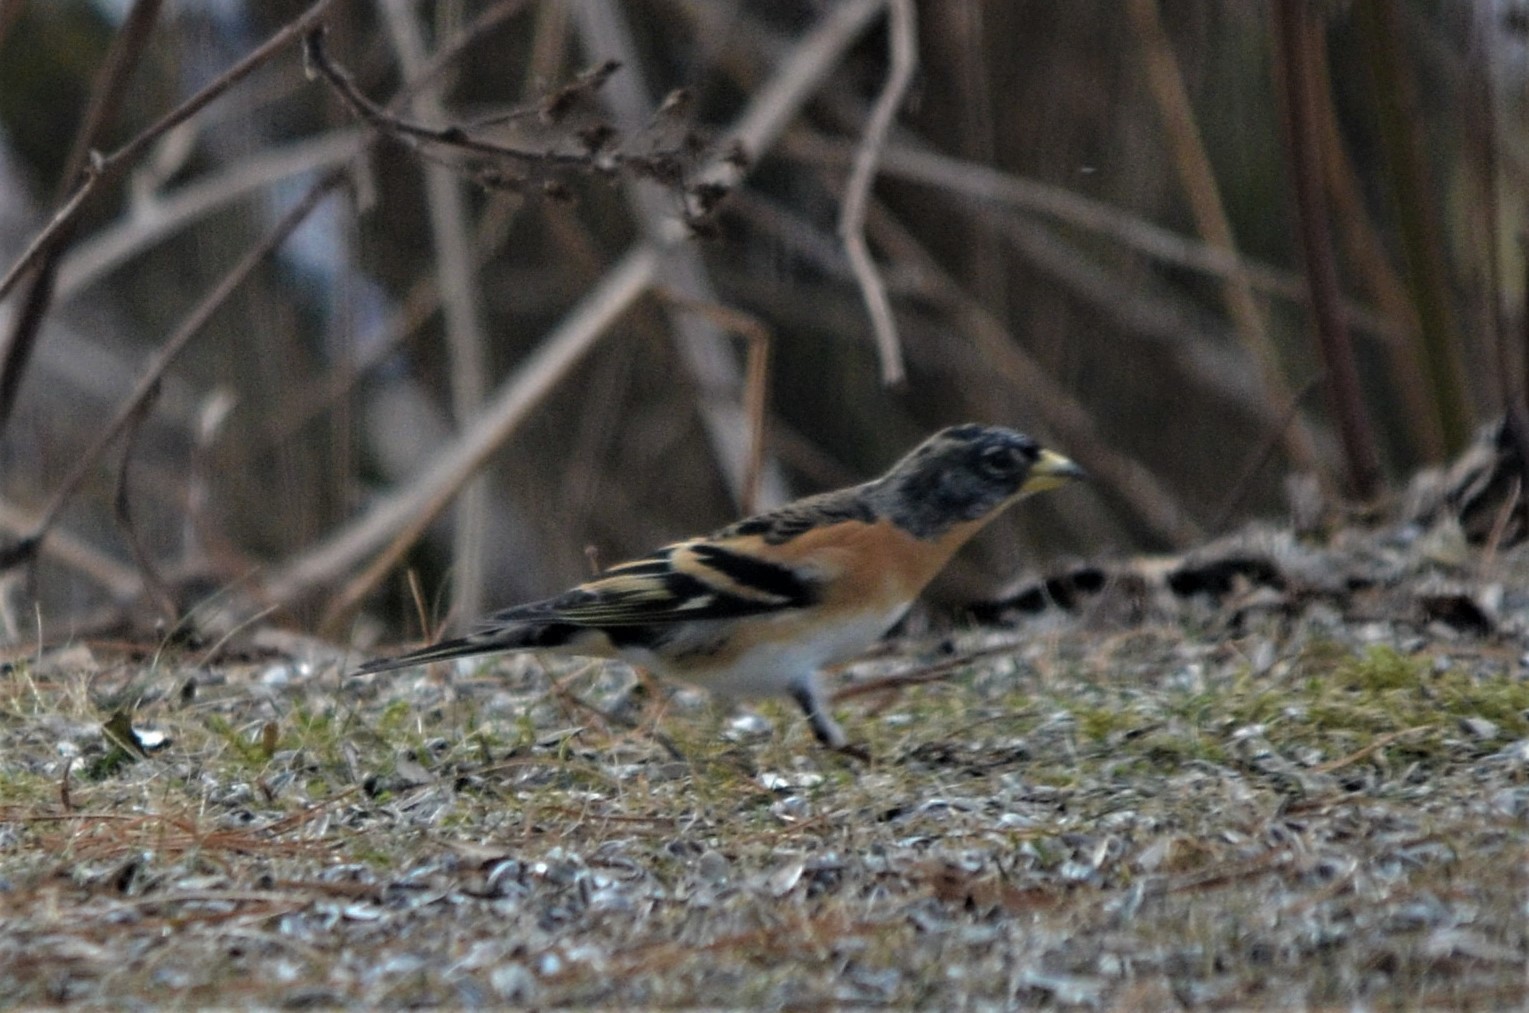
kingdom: Animalia
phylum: Chordata
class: Aves
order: Passeriformes
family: Fringillidae
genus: Fringilla
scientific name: Fringilla montifringilla
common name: Brambling
